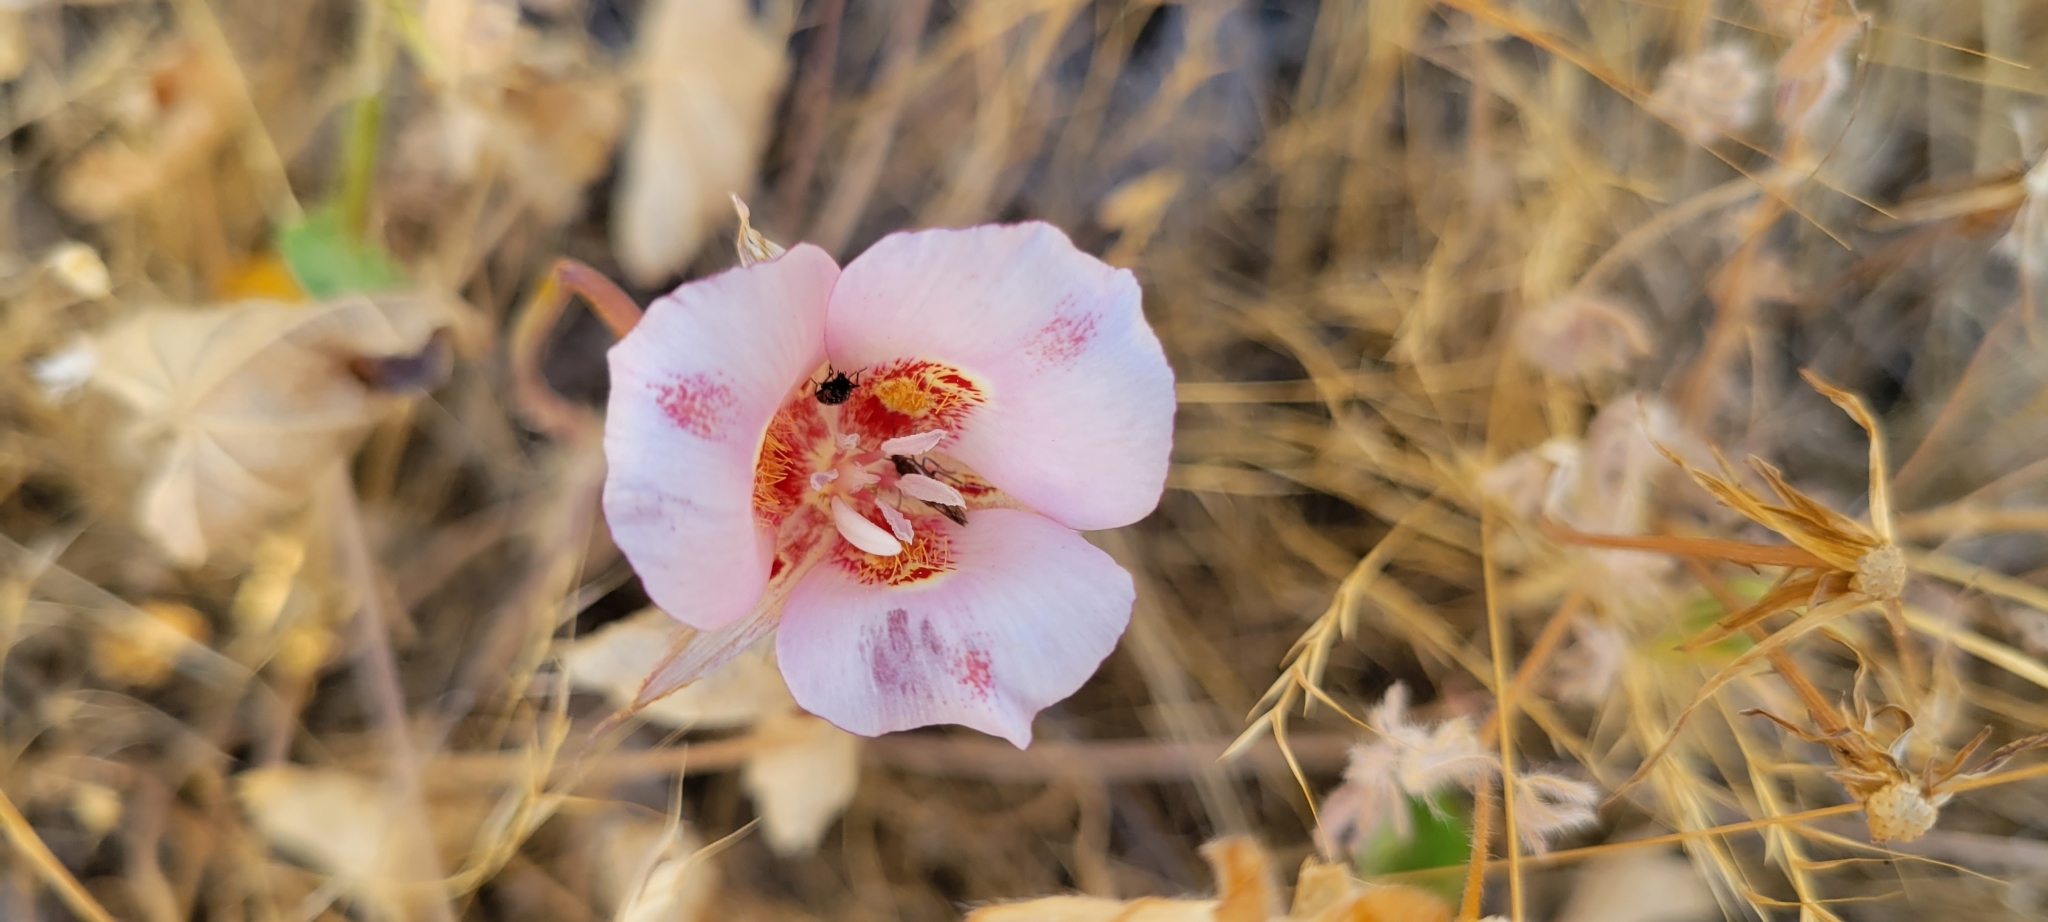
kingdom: Plantae
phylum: Tracheophyta
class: Liliopsida
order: Liliales
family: Liliaceae
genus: Calochortus
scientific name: Calochortus venustus
